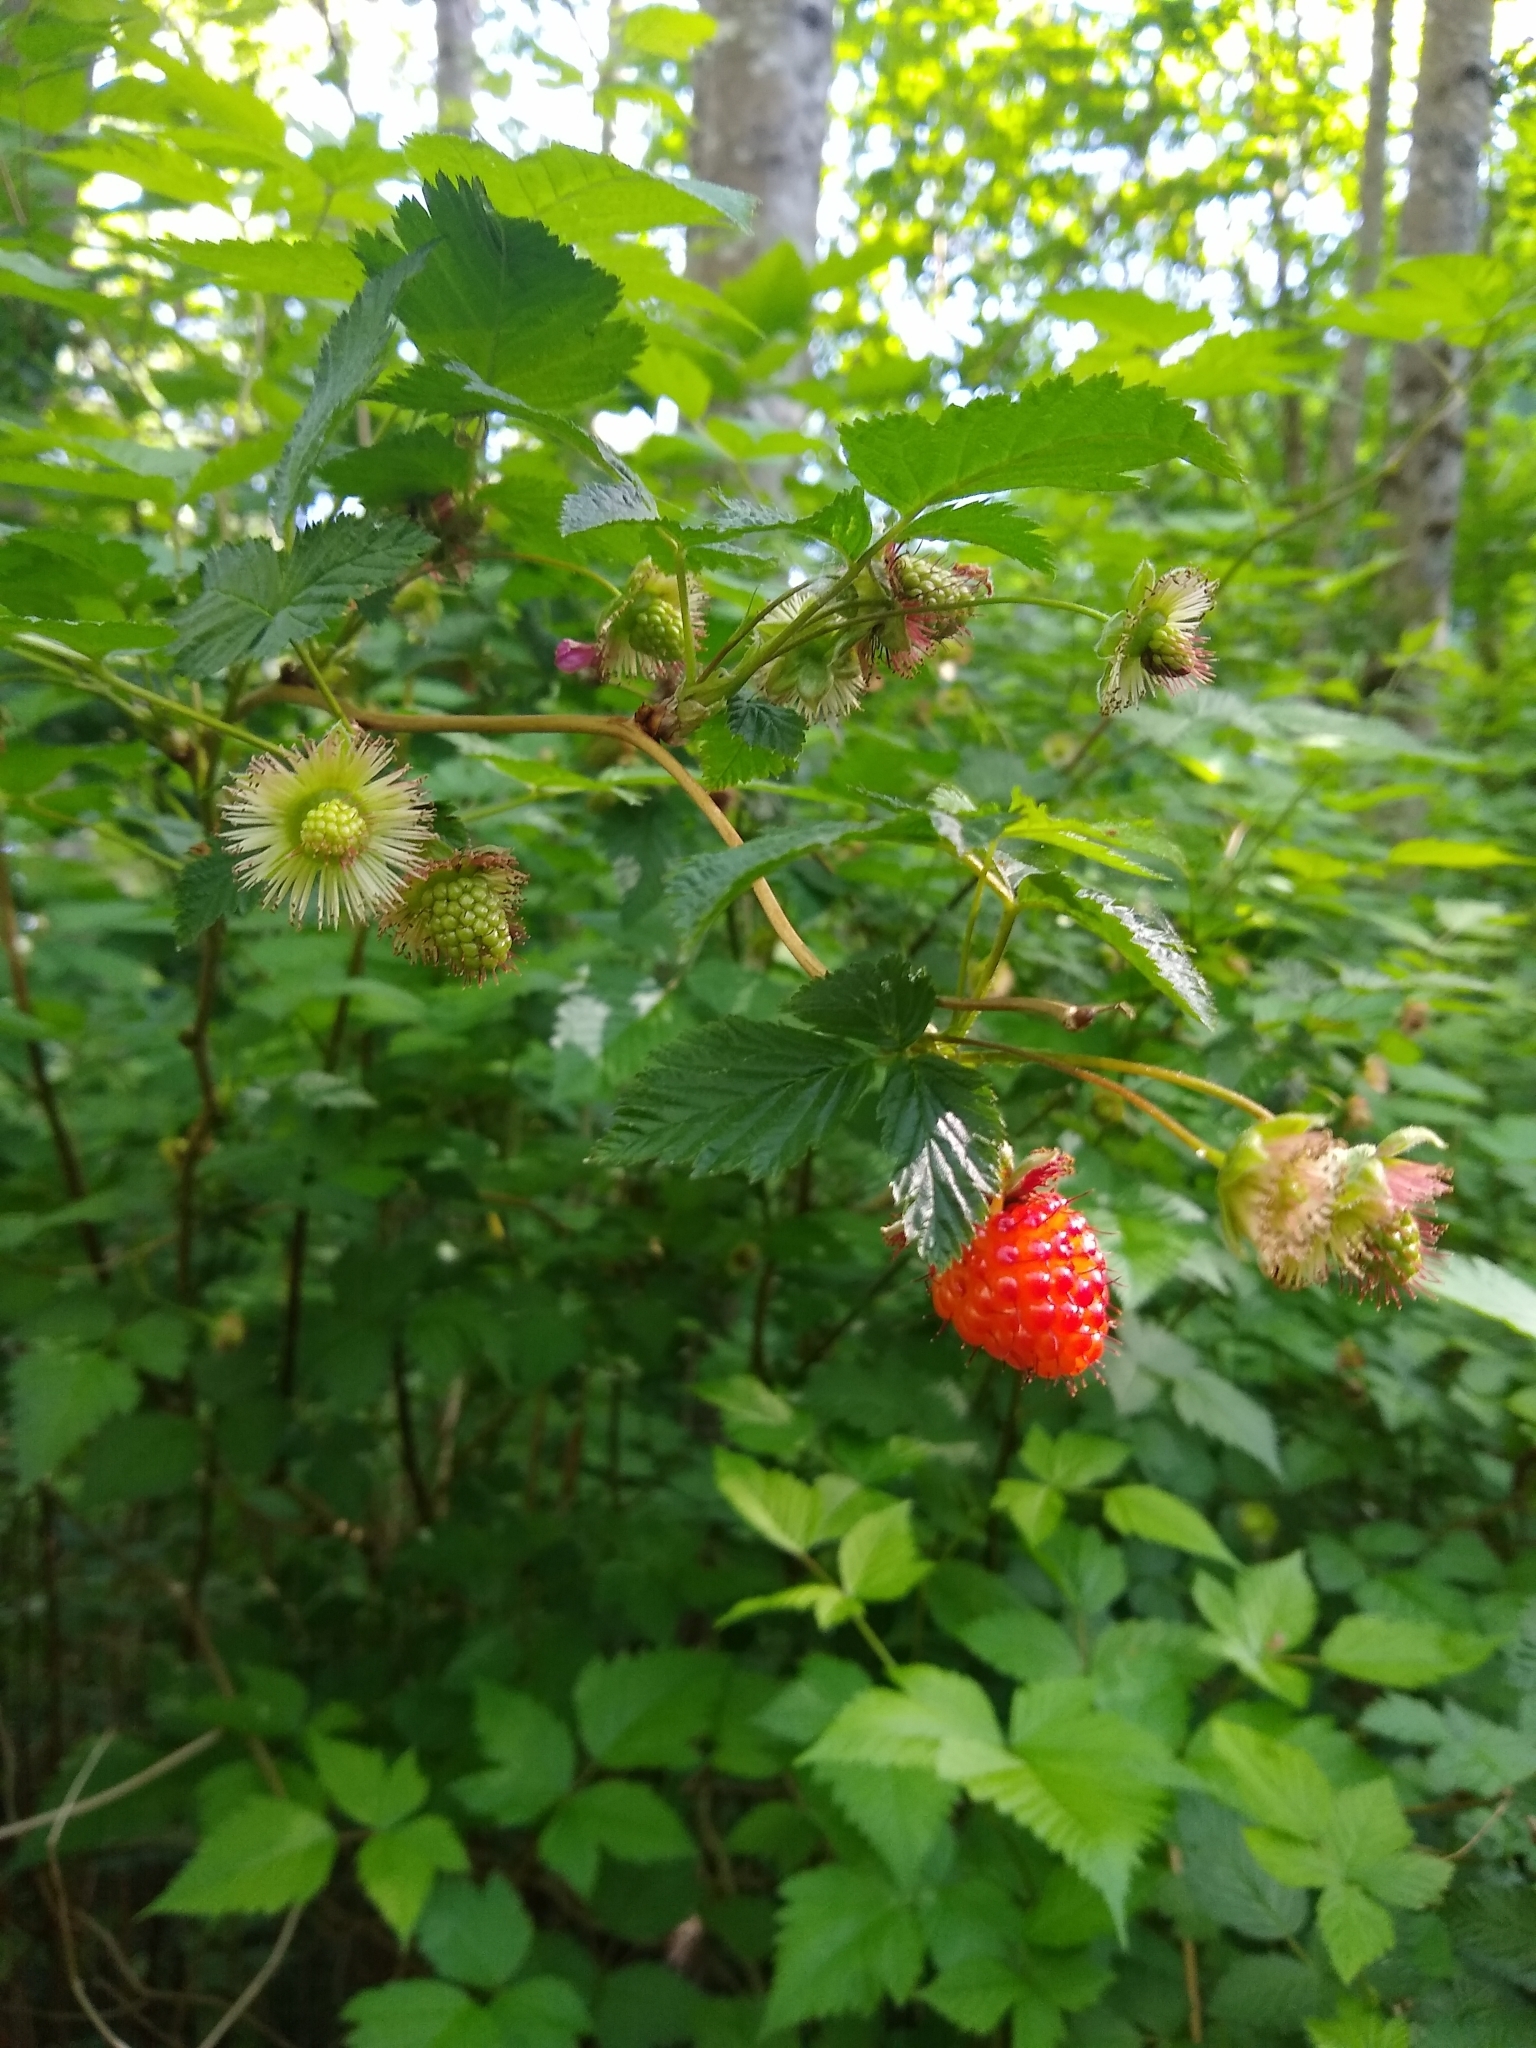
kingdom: Plantae
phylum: Tracheophyta
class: Magnoliopsida
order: Rosales
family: Rosaceae
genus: Rubus
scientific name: Rubus spectabilis
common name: Salmonberry
